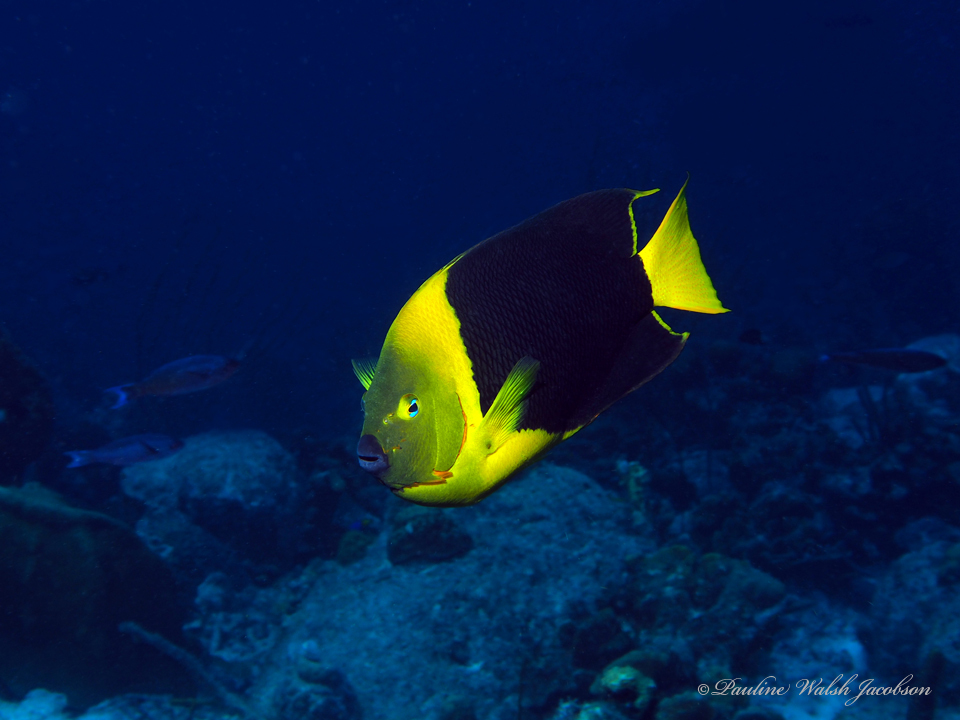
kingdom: Animalia
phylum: Chordata
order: Perciformes
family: Pomacanthidae
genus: Holacanthus
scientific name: Holacanthus tricolor
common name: Rock beauty
